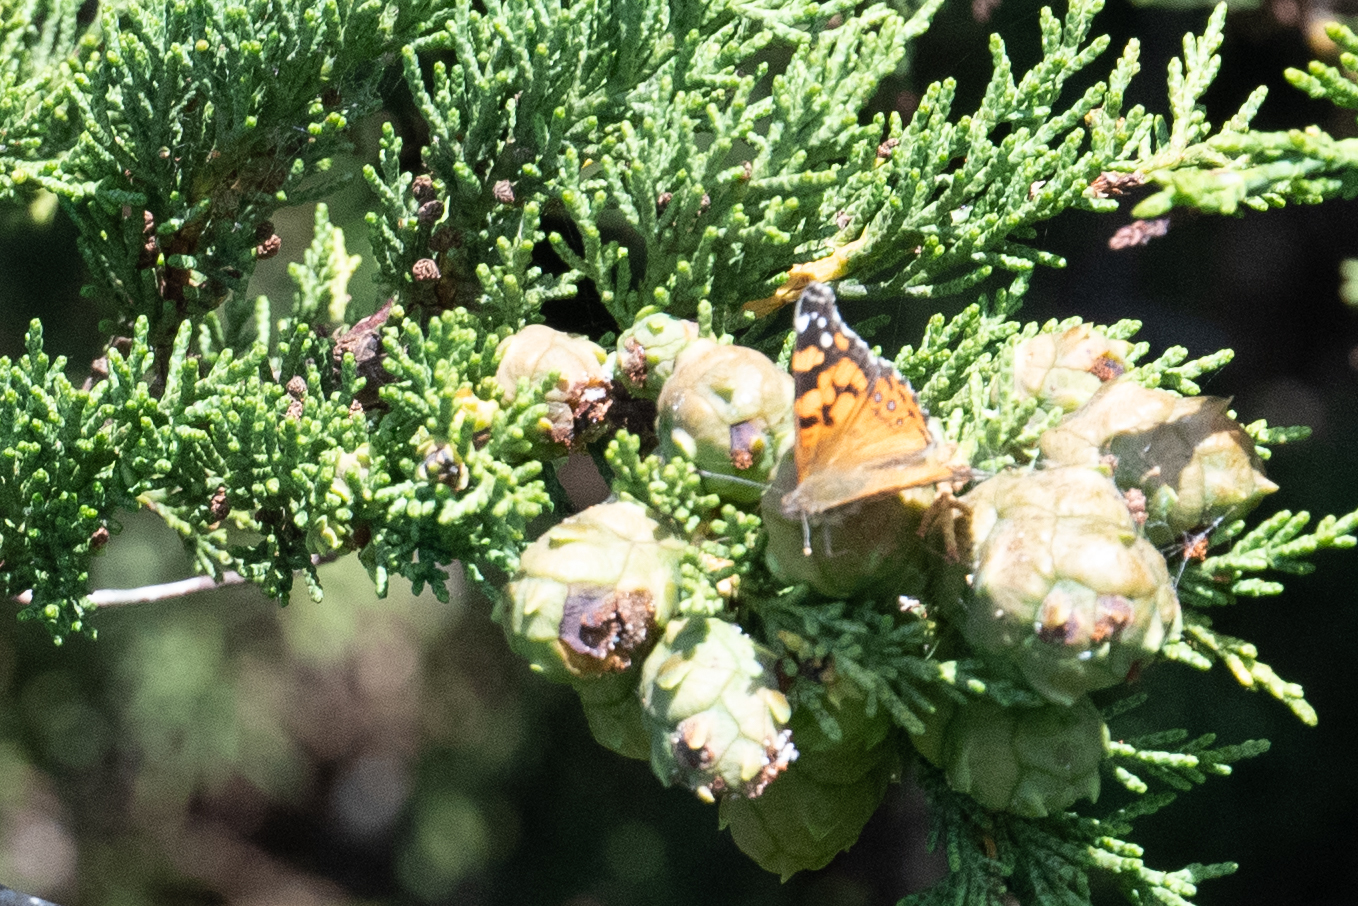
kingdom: Animalia
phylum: Arthropoda
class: Insecta
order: Lepidoptera
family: Nymphalidae
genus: Vanessa
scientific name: Vanessa annabella
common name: West coast lady
